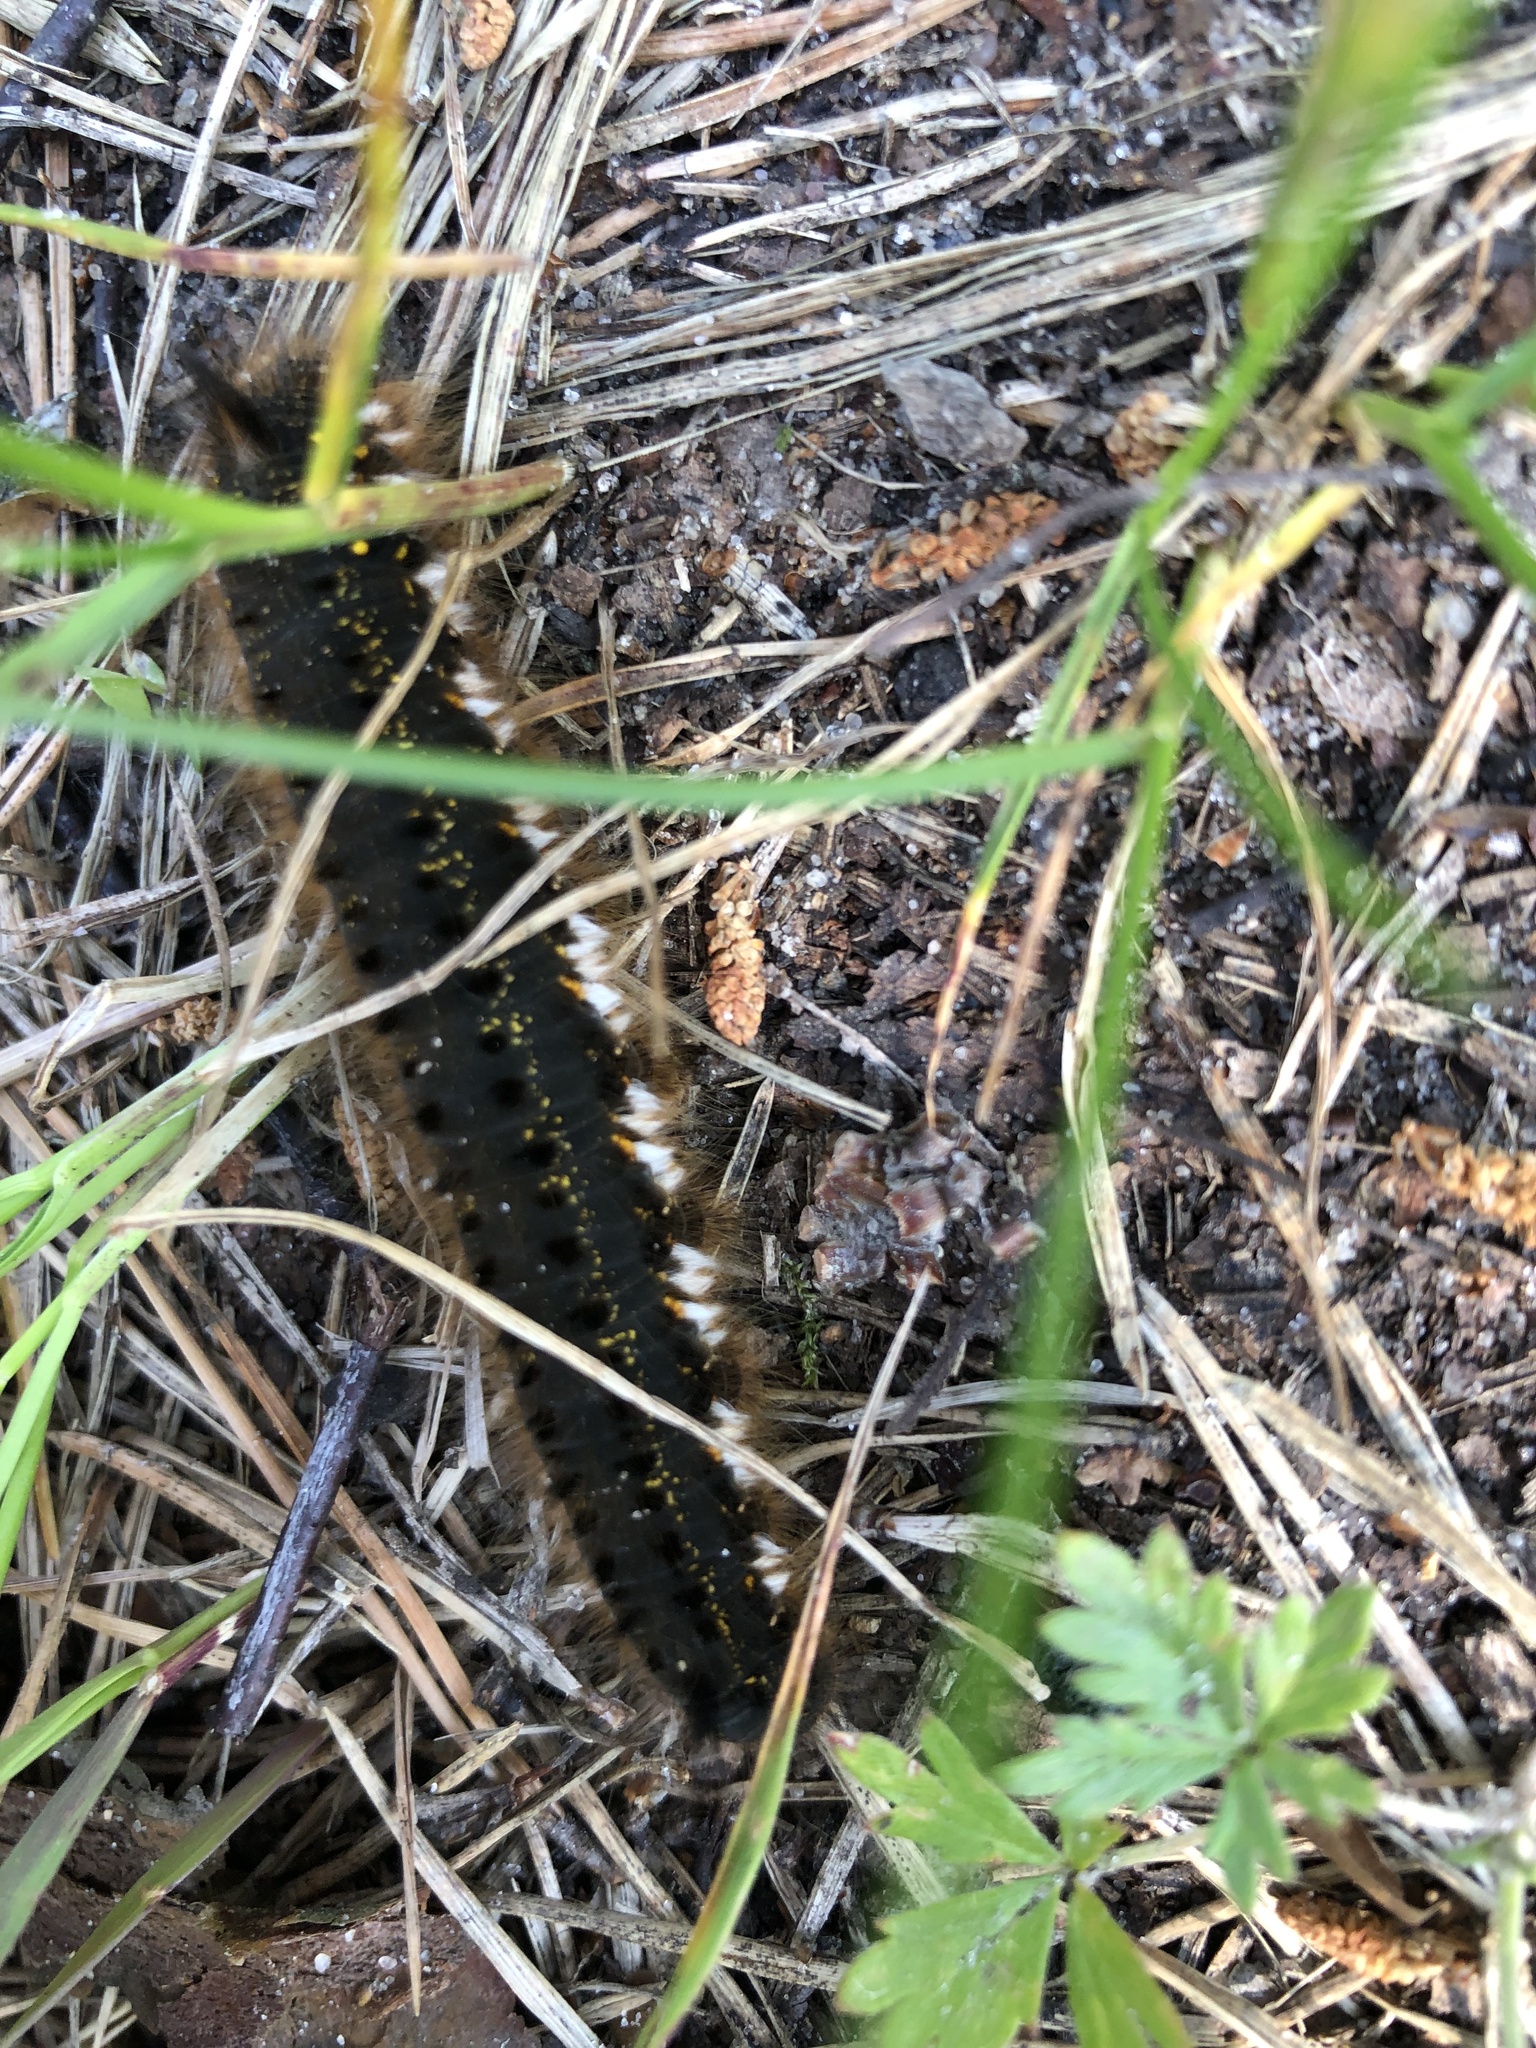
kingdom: Animalia
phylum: Arthropoda
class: Insecta
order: Lepidoptera
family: Lasiocampidae
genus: Euthrix
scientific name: Euthrix potatoria
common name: Drinker
